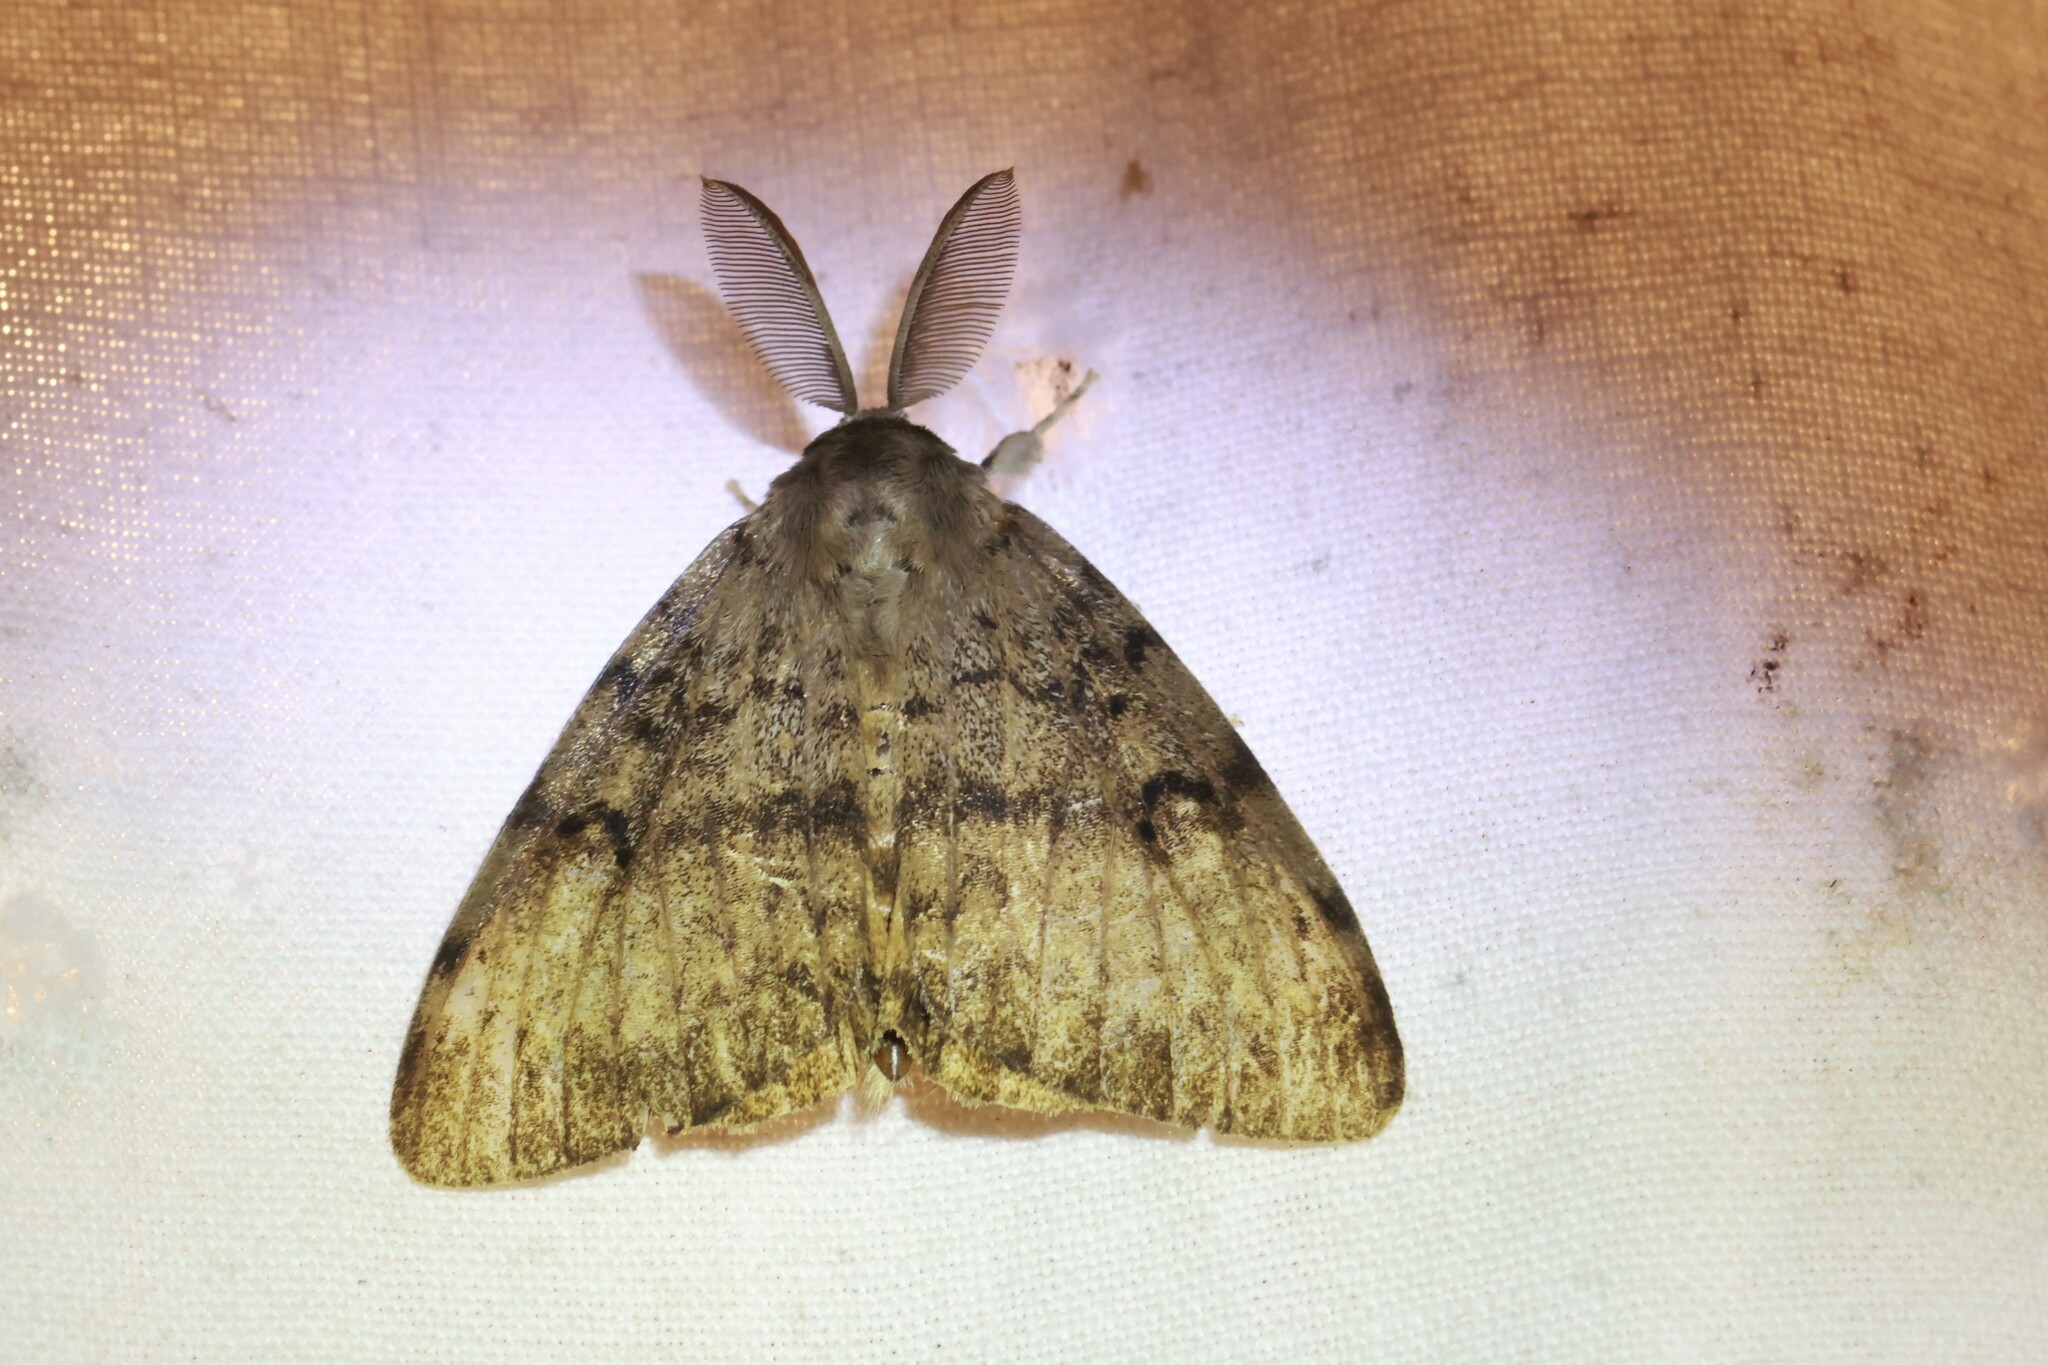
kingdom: Animalia
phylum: Arthropoda
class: Insecta
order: Lepidoptera
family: Erebidae
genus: Lymantria
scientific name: Lymantria dispar
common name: Gypsy moth
